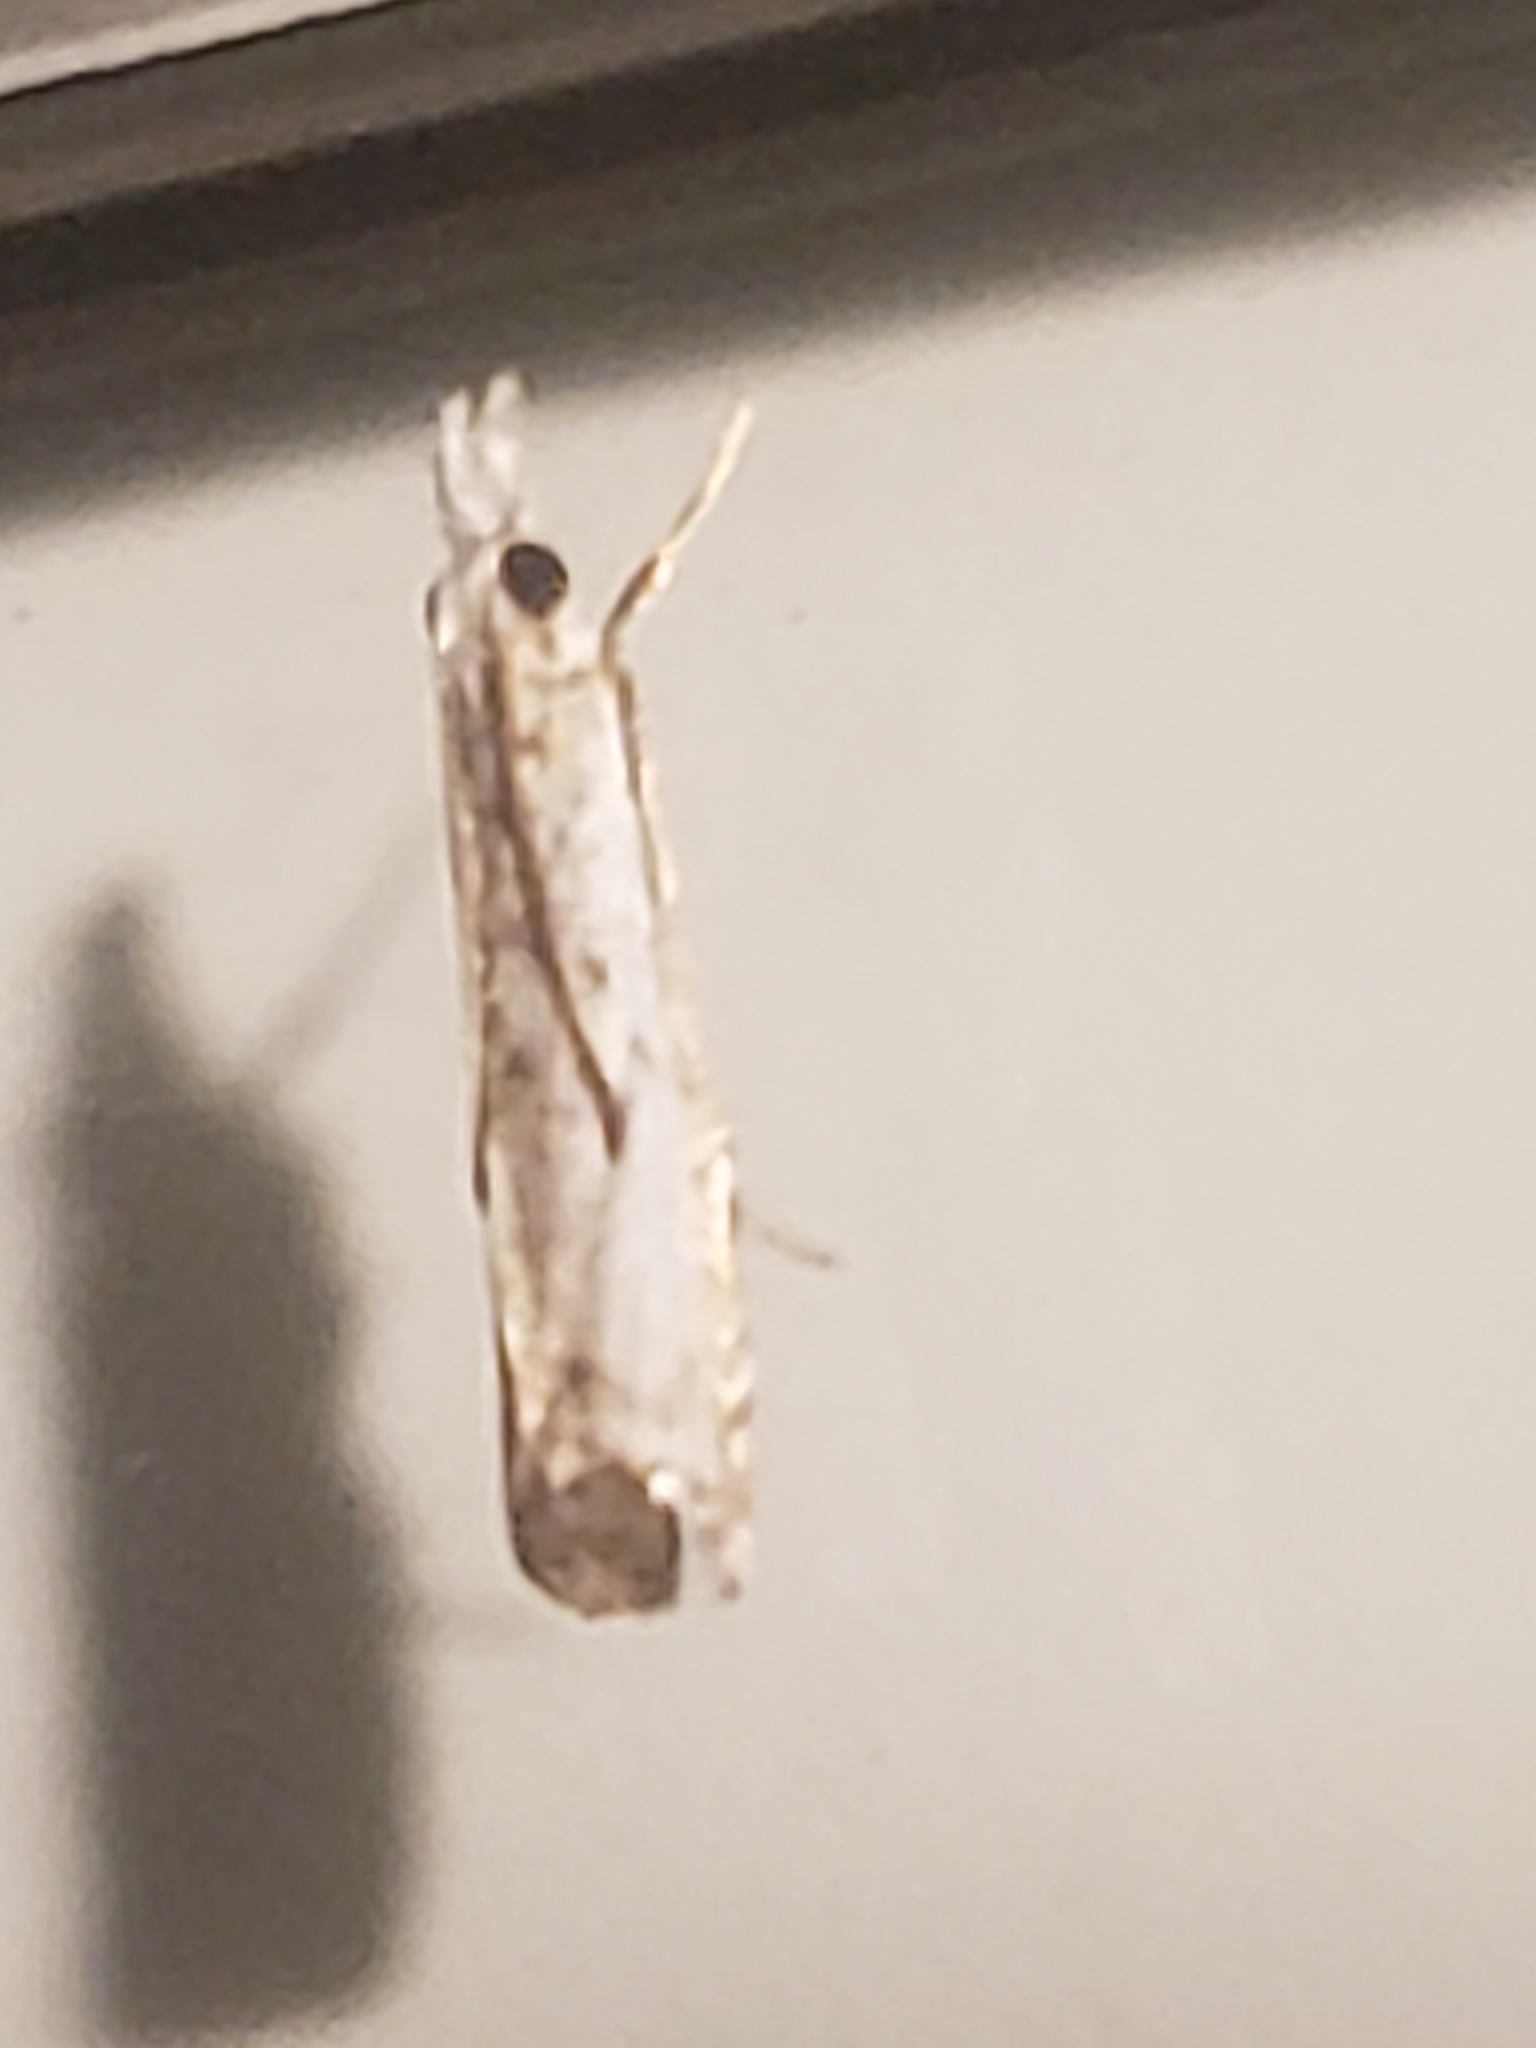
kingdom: Animalia
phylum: Arthropoda
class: Insecta
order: Lepidoptera
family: Crambidae
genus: Microcrambus
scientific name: Microcrambus immunellus
